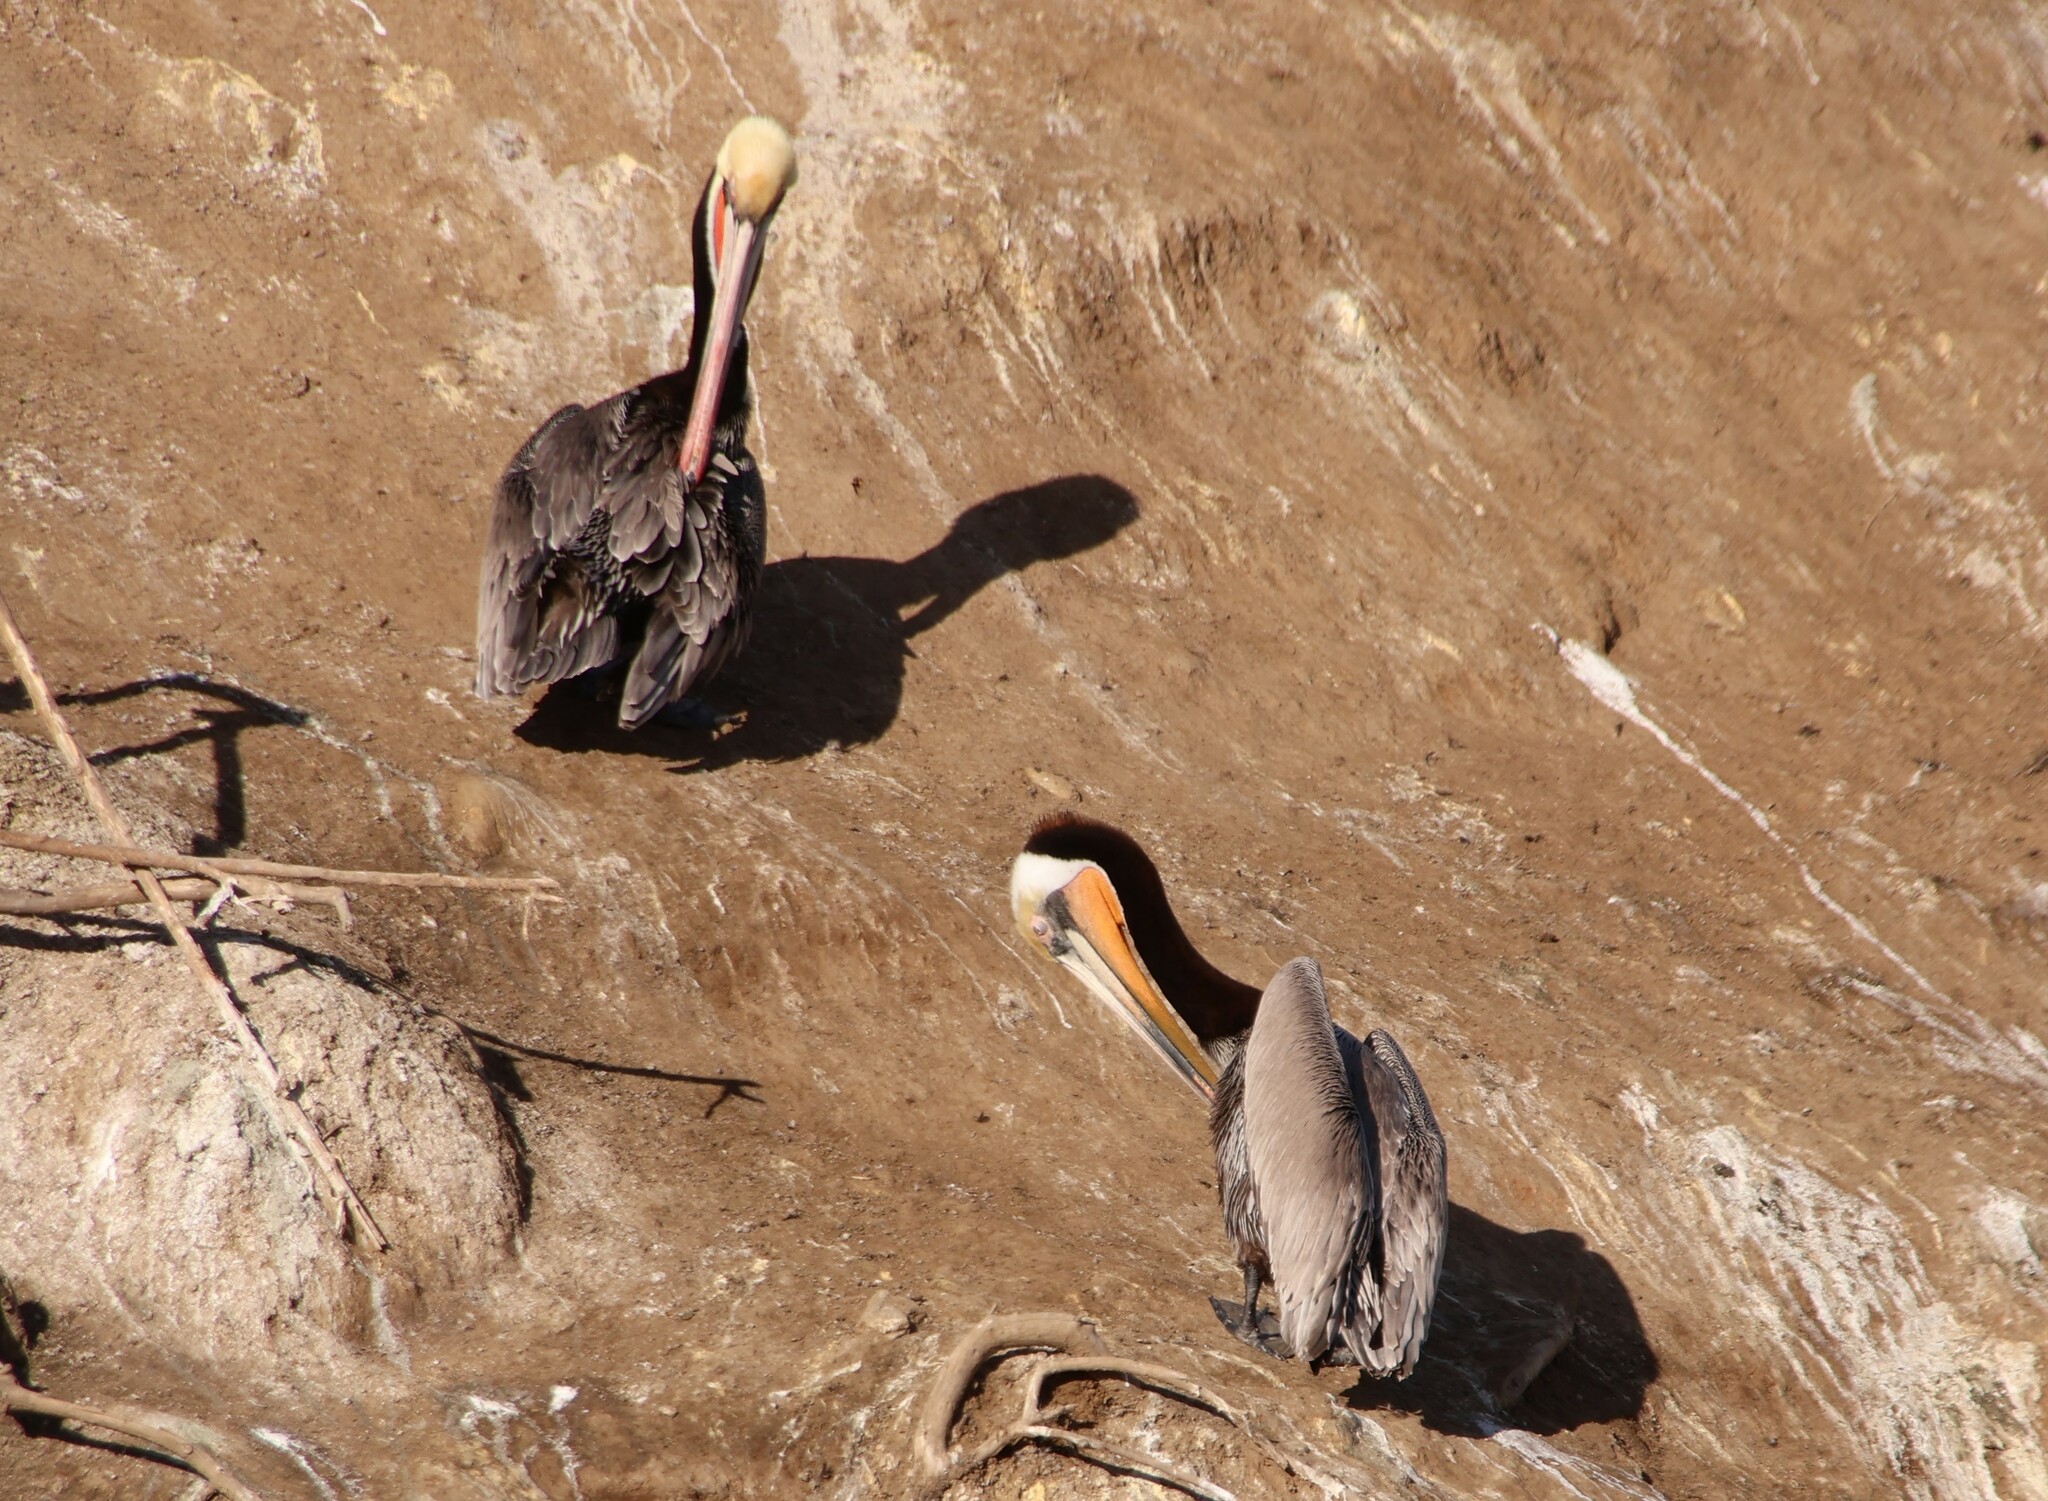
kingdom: Animalia
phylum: Chordata
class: Aves
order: Pelecaniformes
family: Pelecanidae
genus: Pelecanus
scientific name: Pelecanus occidentalis
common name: Brown pelican
